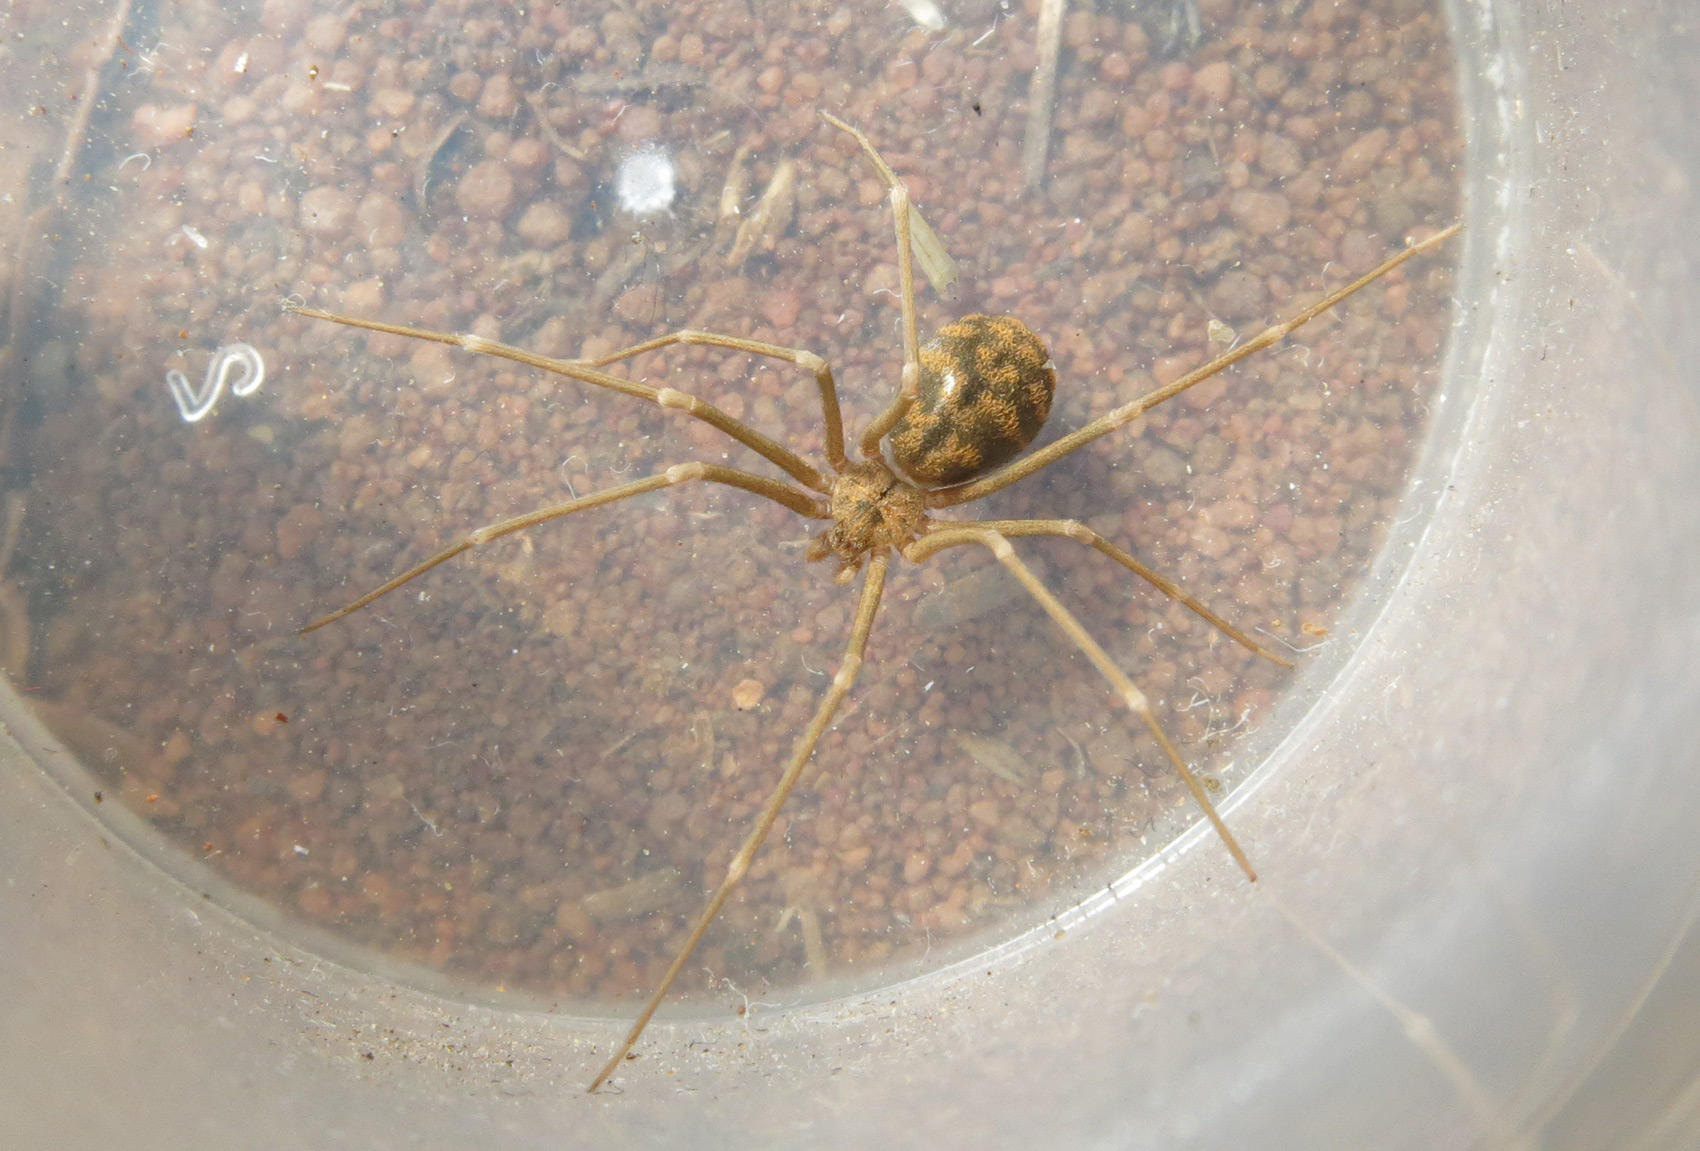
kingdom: Animalia
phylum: Arthropoda
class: Arachnida
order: Araneae
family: Sicariidae
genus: Loxosceles
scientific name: Loxosceles simillima
